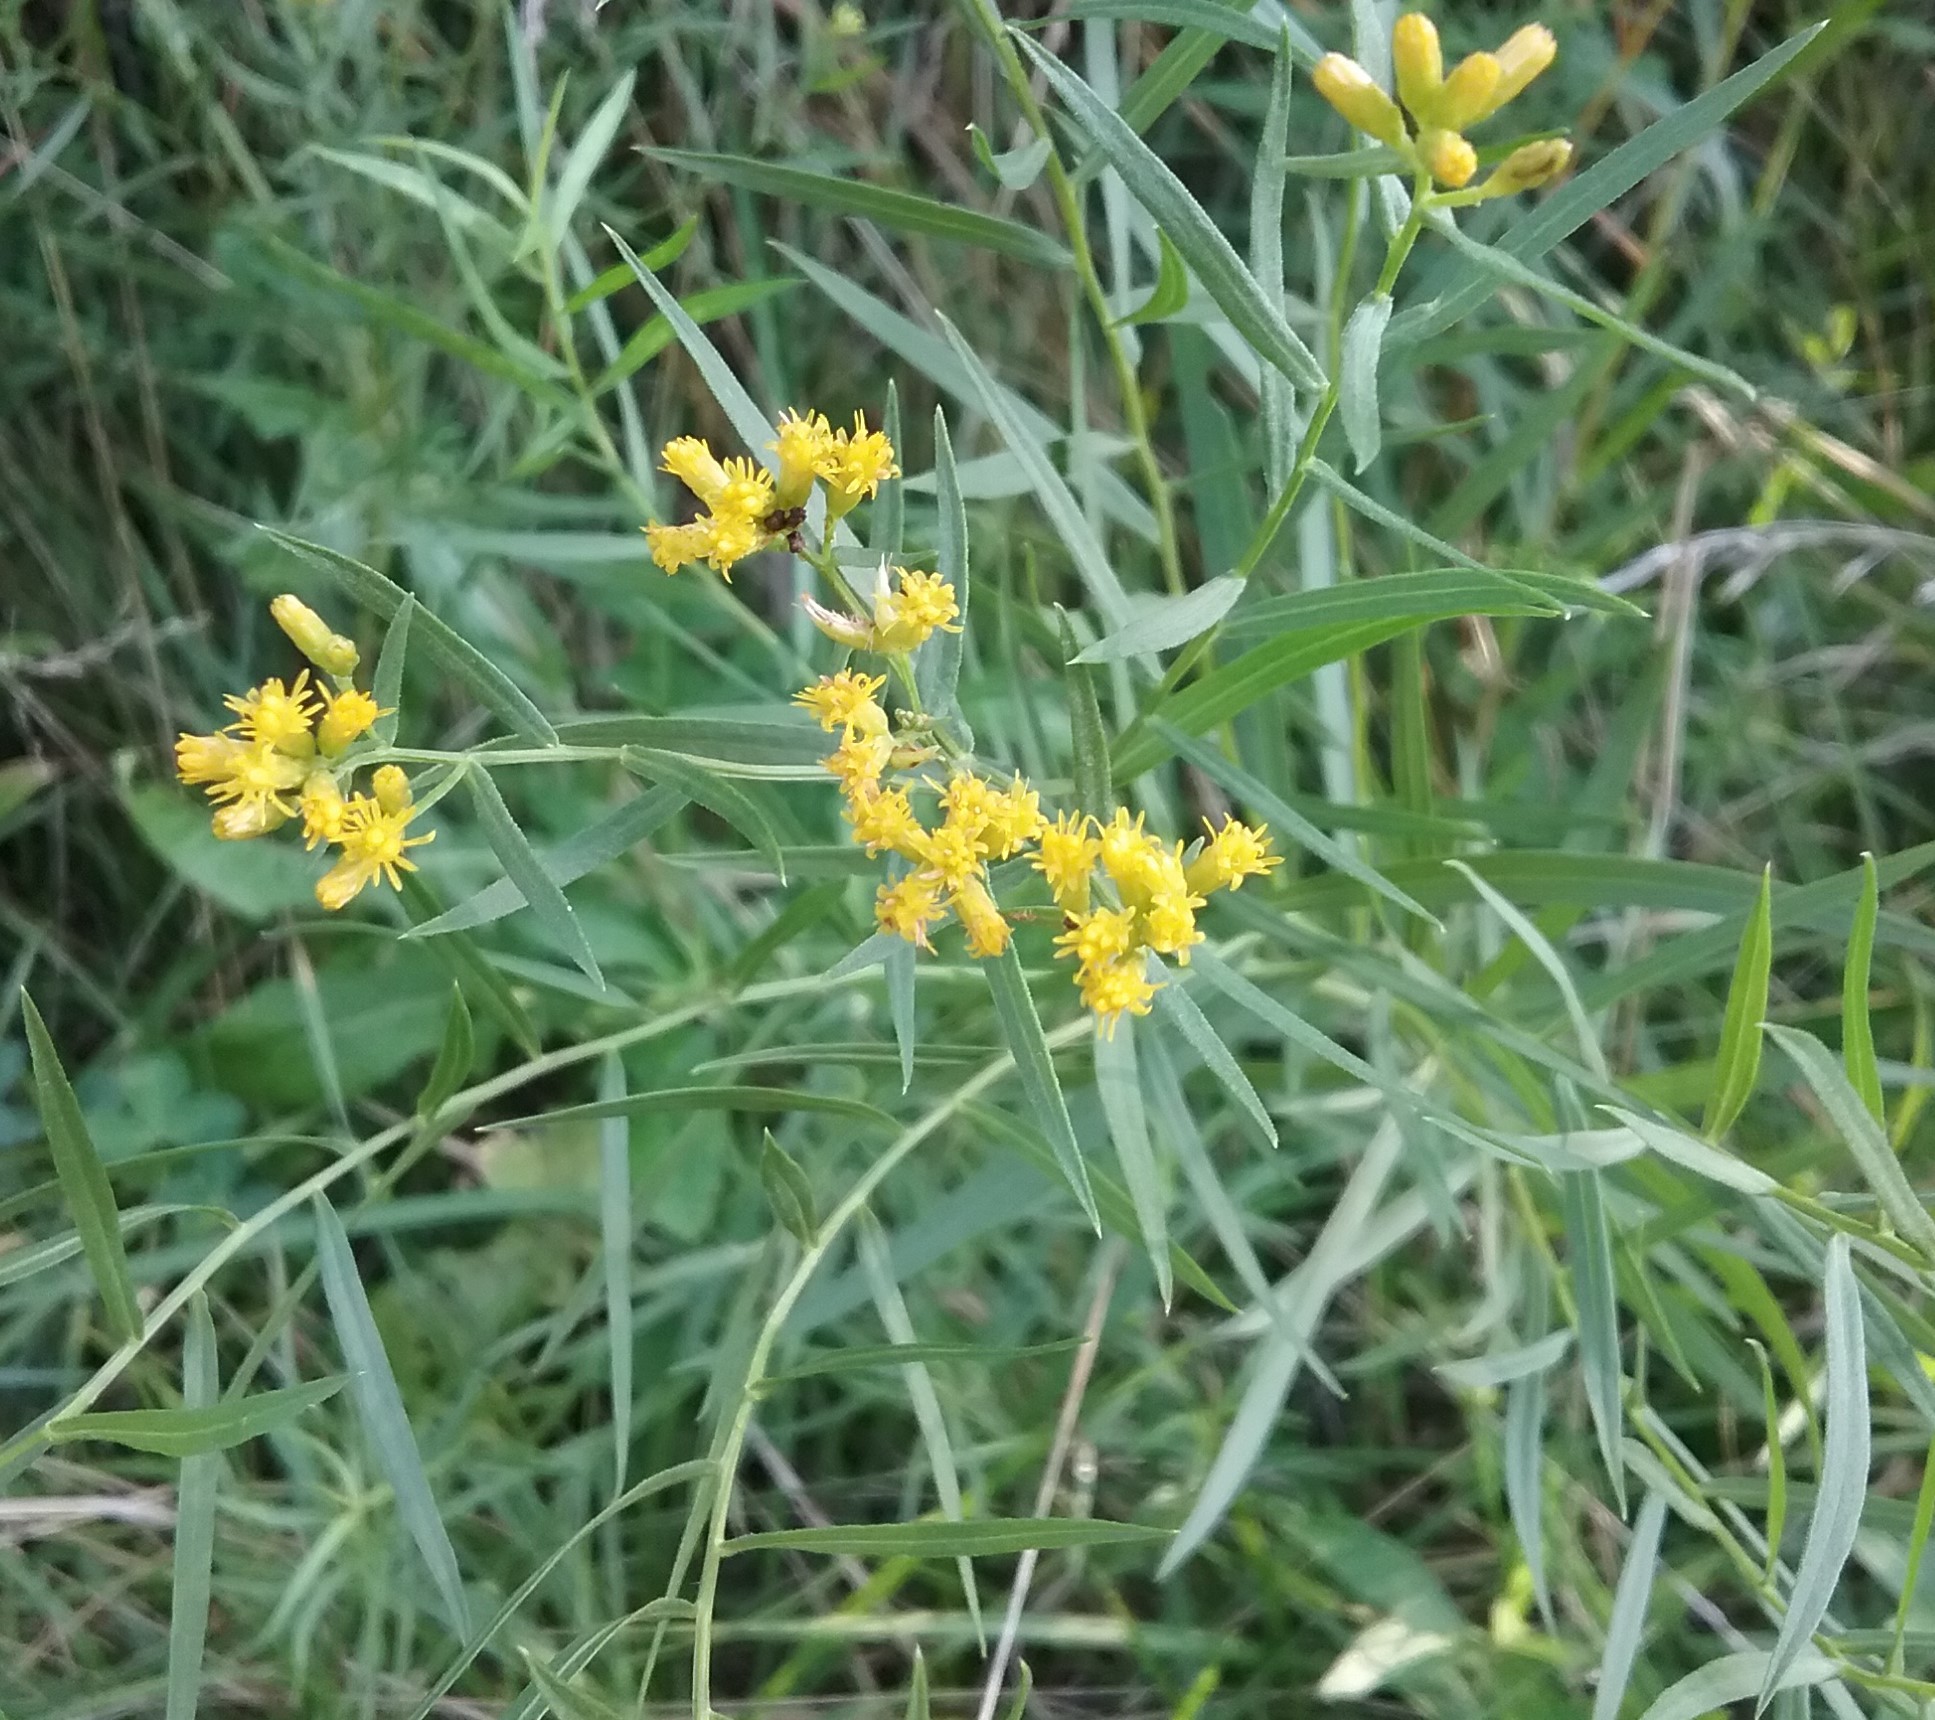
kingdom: Plantae
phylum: Tracheophyta
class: Magnoliopsida
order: Asterales
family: Asteraceae
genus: Euthamia
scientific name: Euthamia graminifolia
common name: Common goldentop
